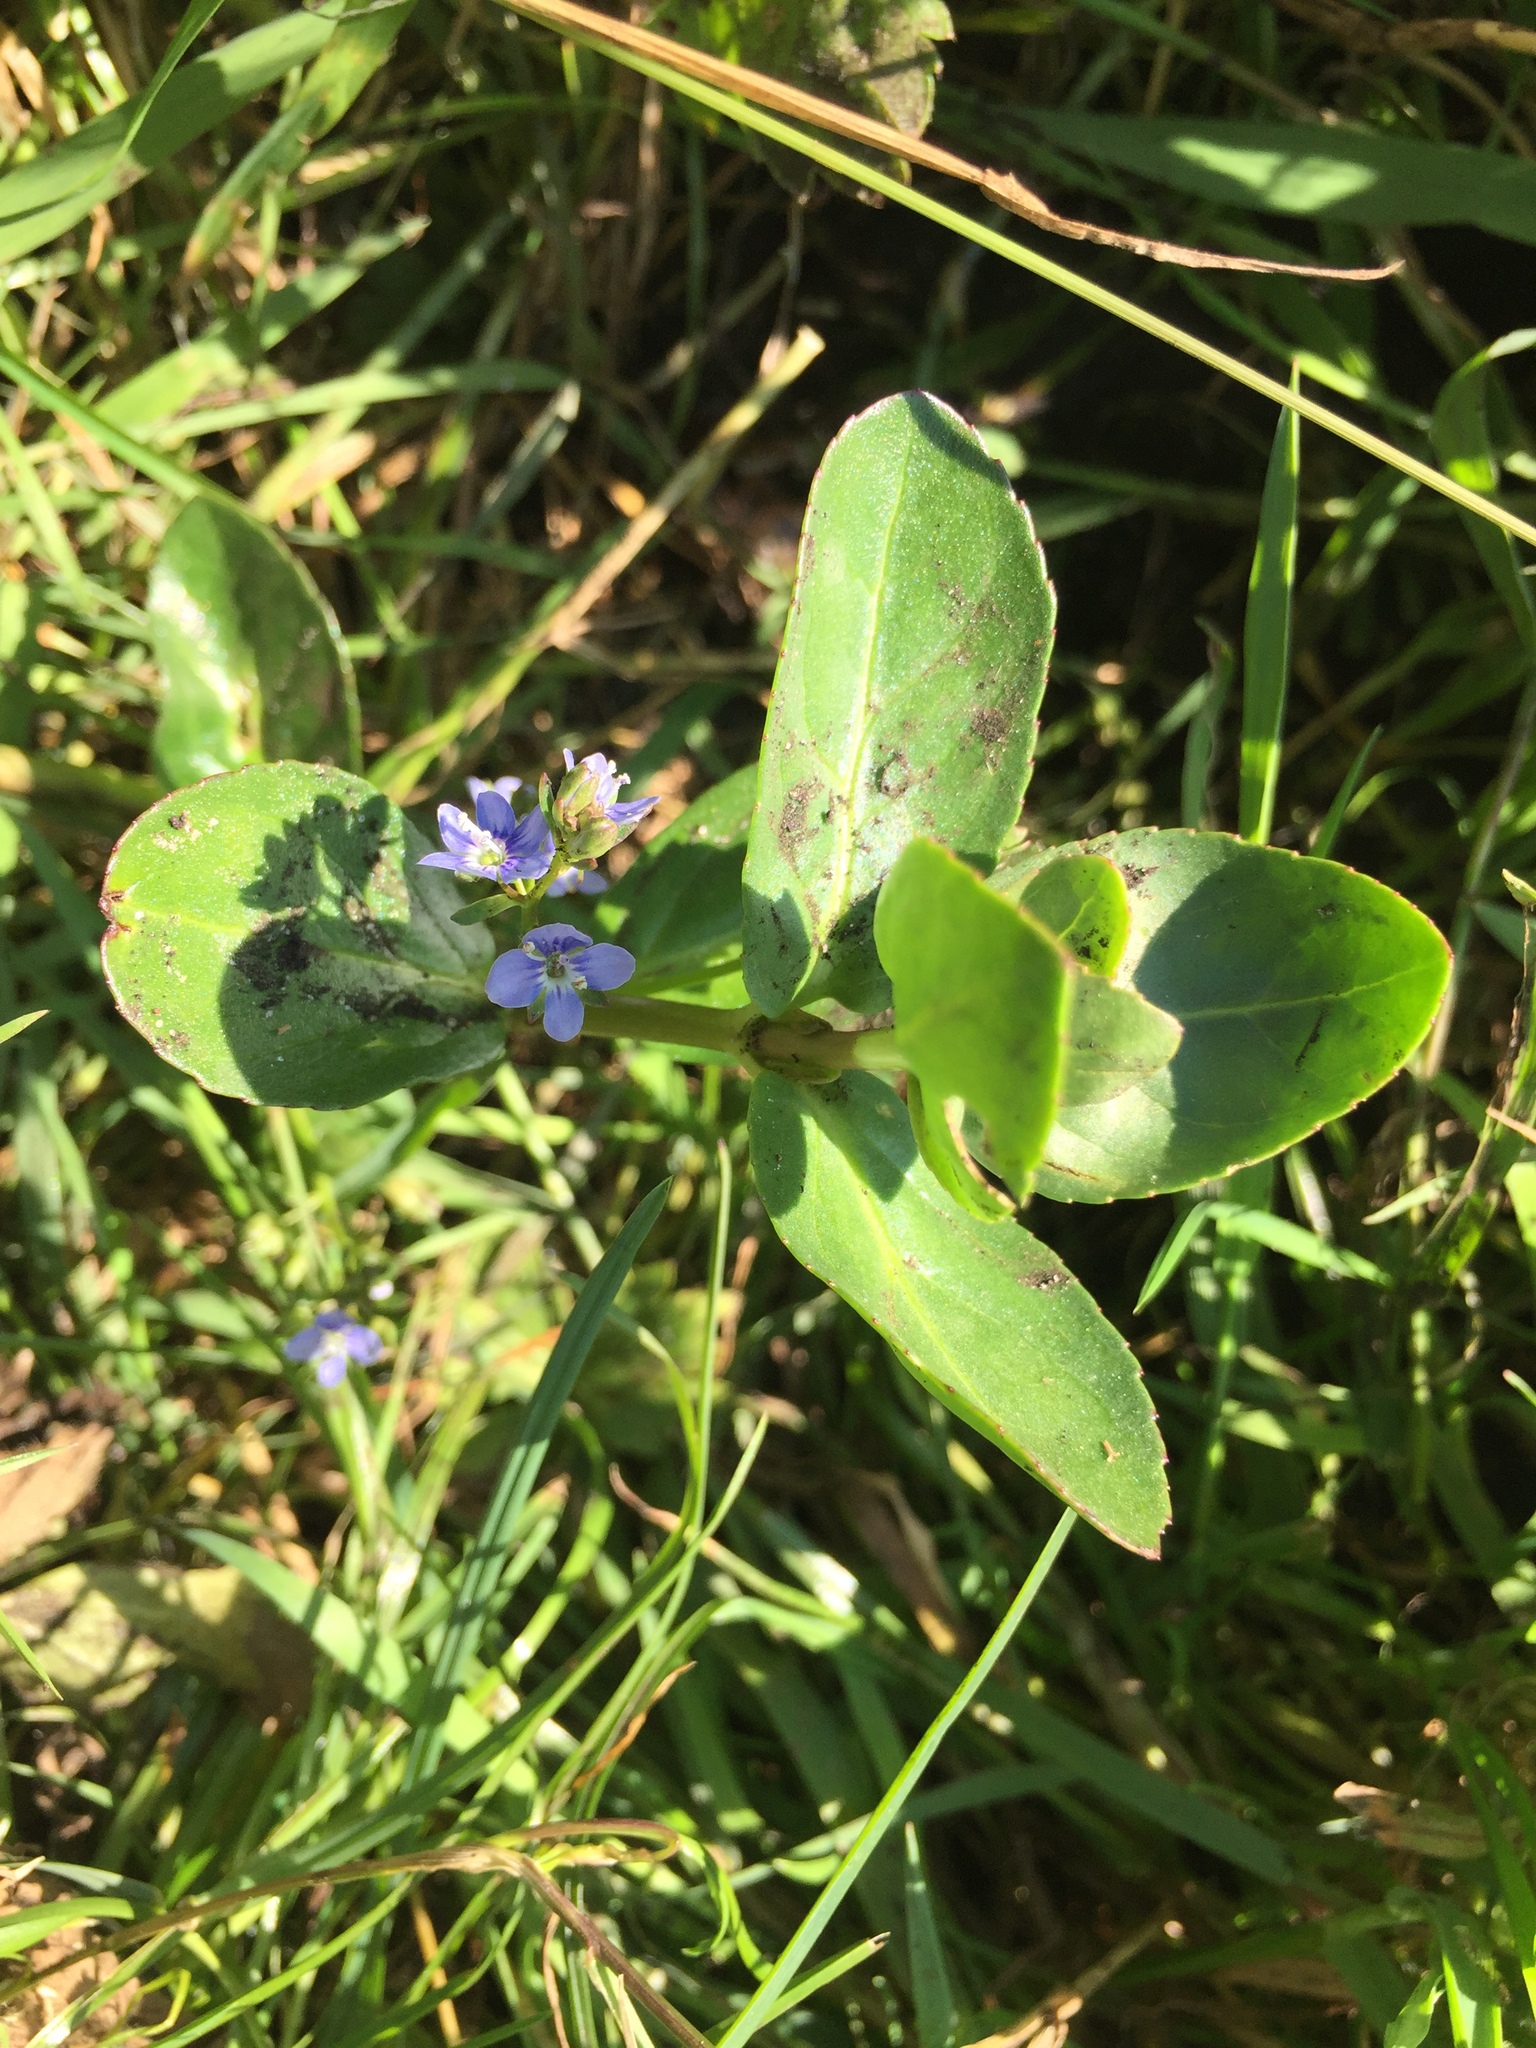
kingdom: Plantae
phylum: Tracheophyta
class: Magnoliopsida
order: Lamiales
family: Plantaginaceae
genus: Veronica
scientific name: Veronica beccabunga
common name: Brooklime
